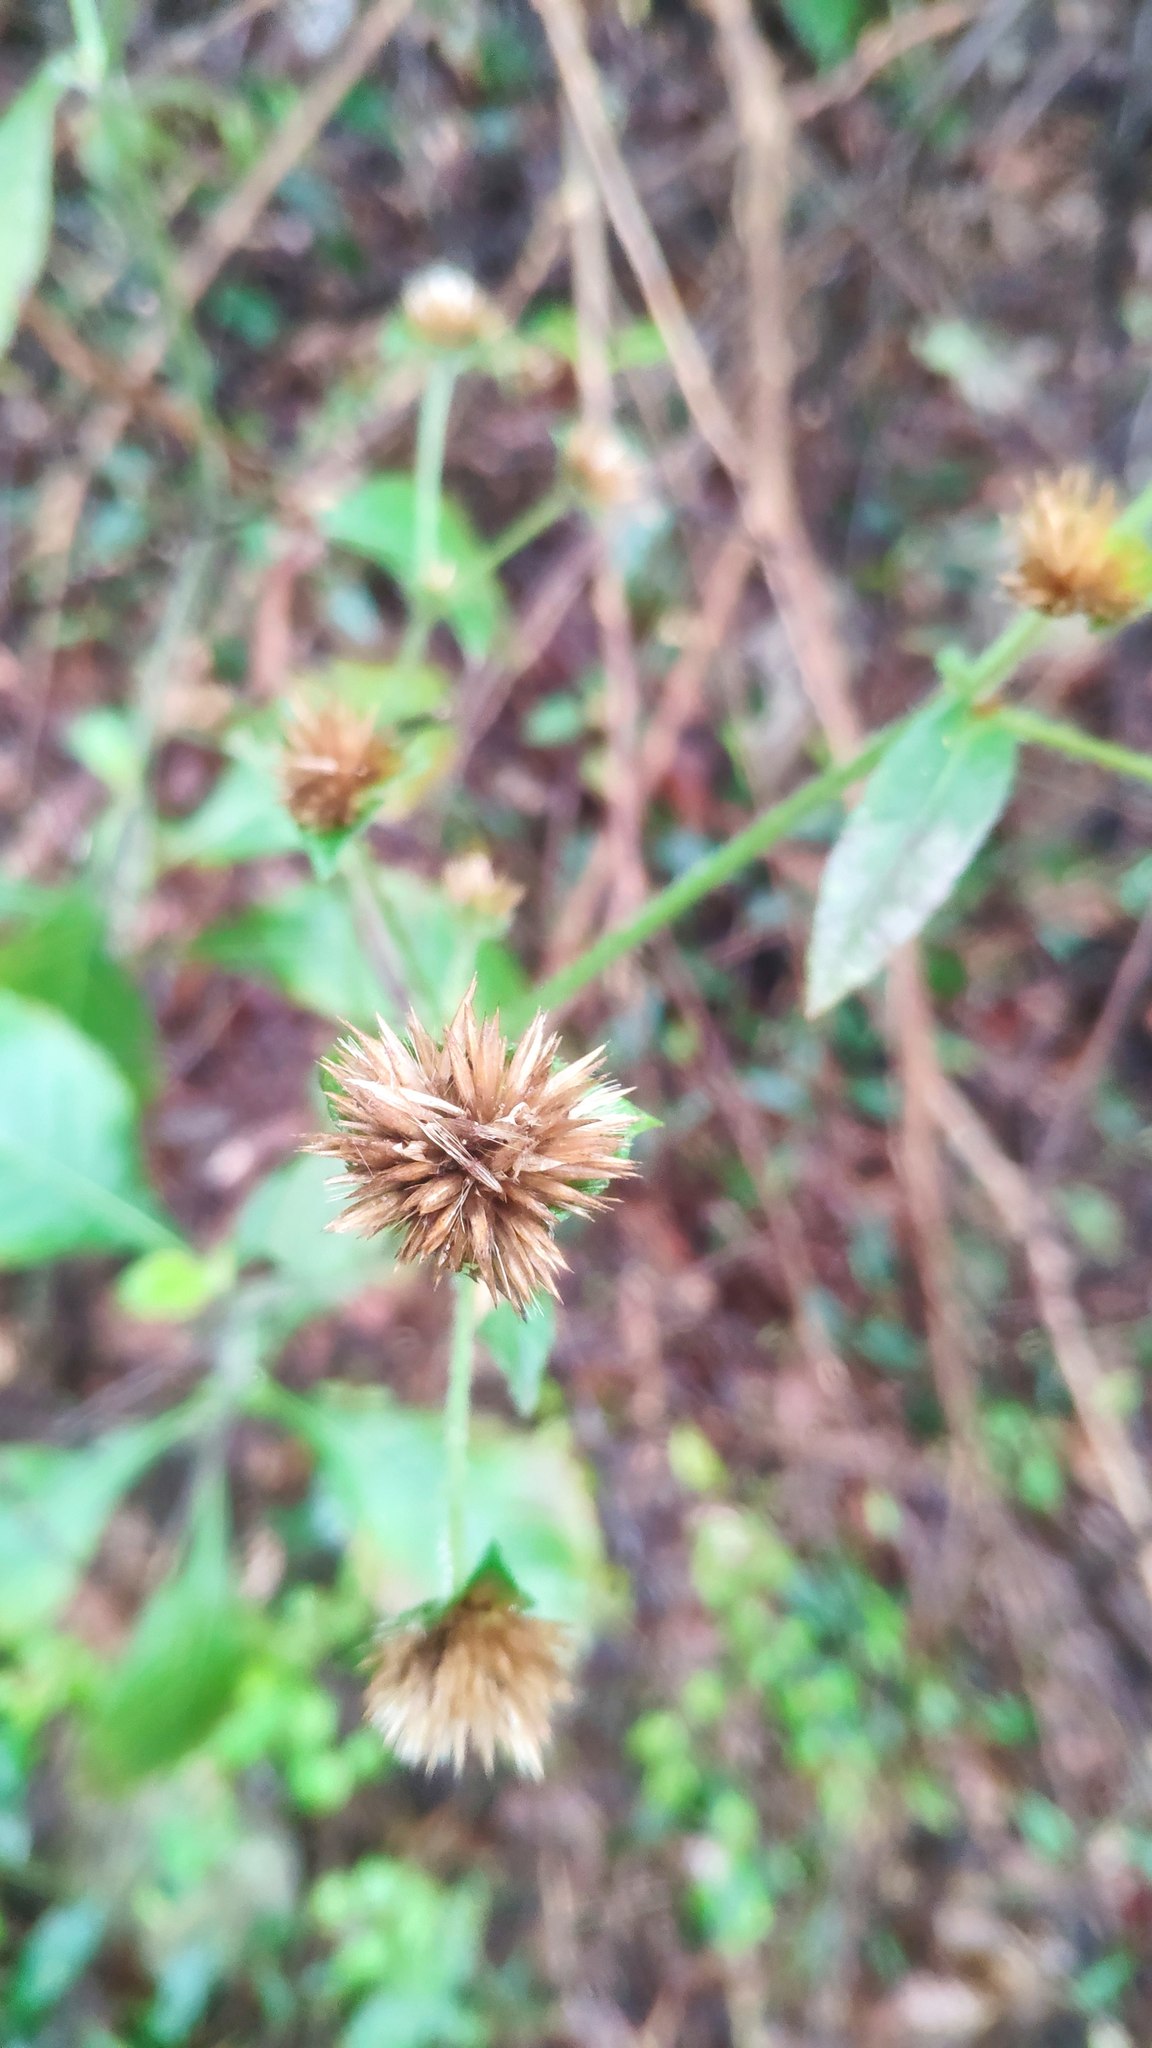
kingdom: Plantae
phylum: Tracheophyta
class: Magnoliopsida
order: Asterales
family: Asteraceae
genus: Elephantopus
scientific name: Elephantopus mollis
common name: Soft elephantsfoot
